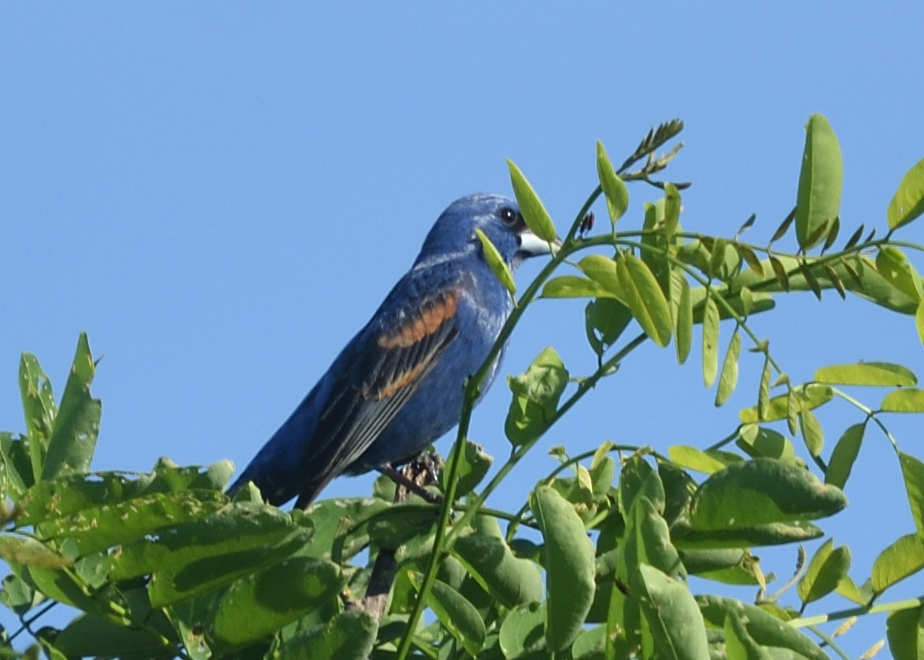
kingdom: Animalia
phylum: Chordata
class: Aves
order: Passeriformes
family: Cardinalidae
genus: Passerina
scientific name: Passerina caerulea
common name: Blue grosbeak
